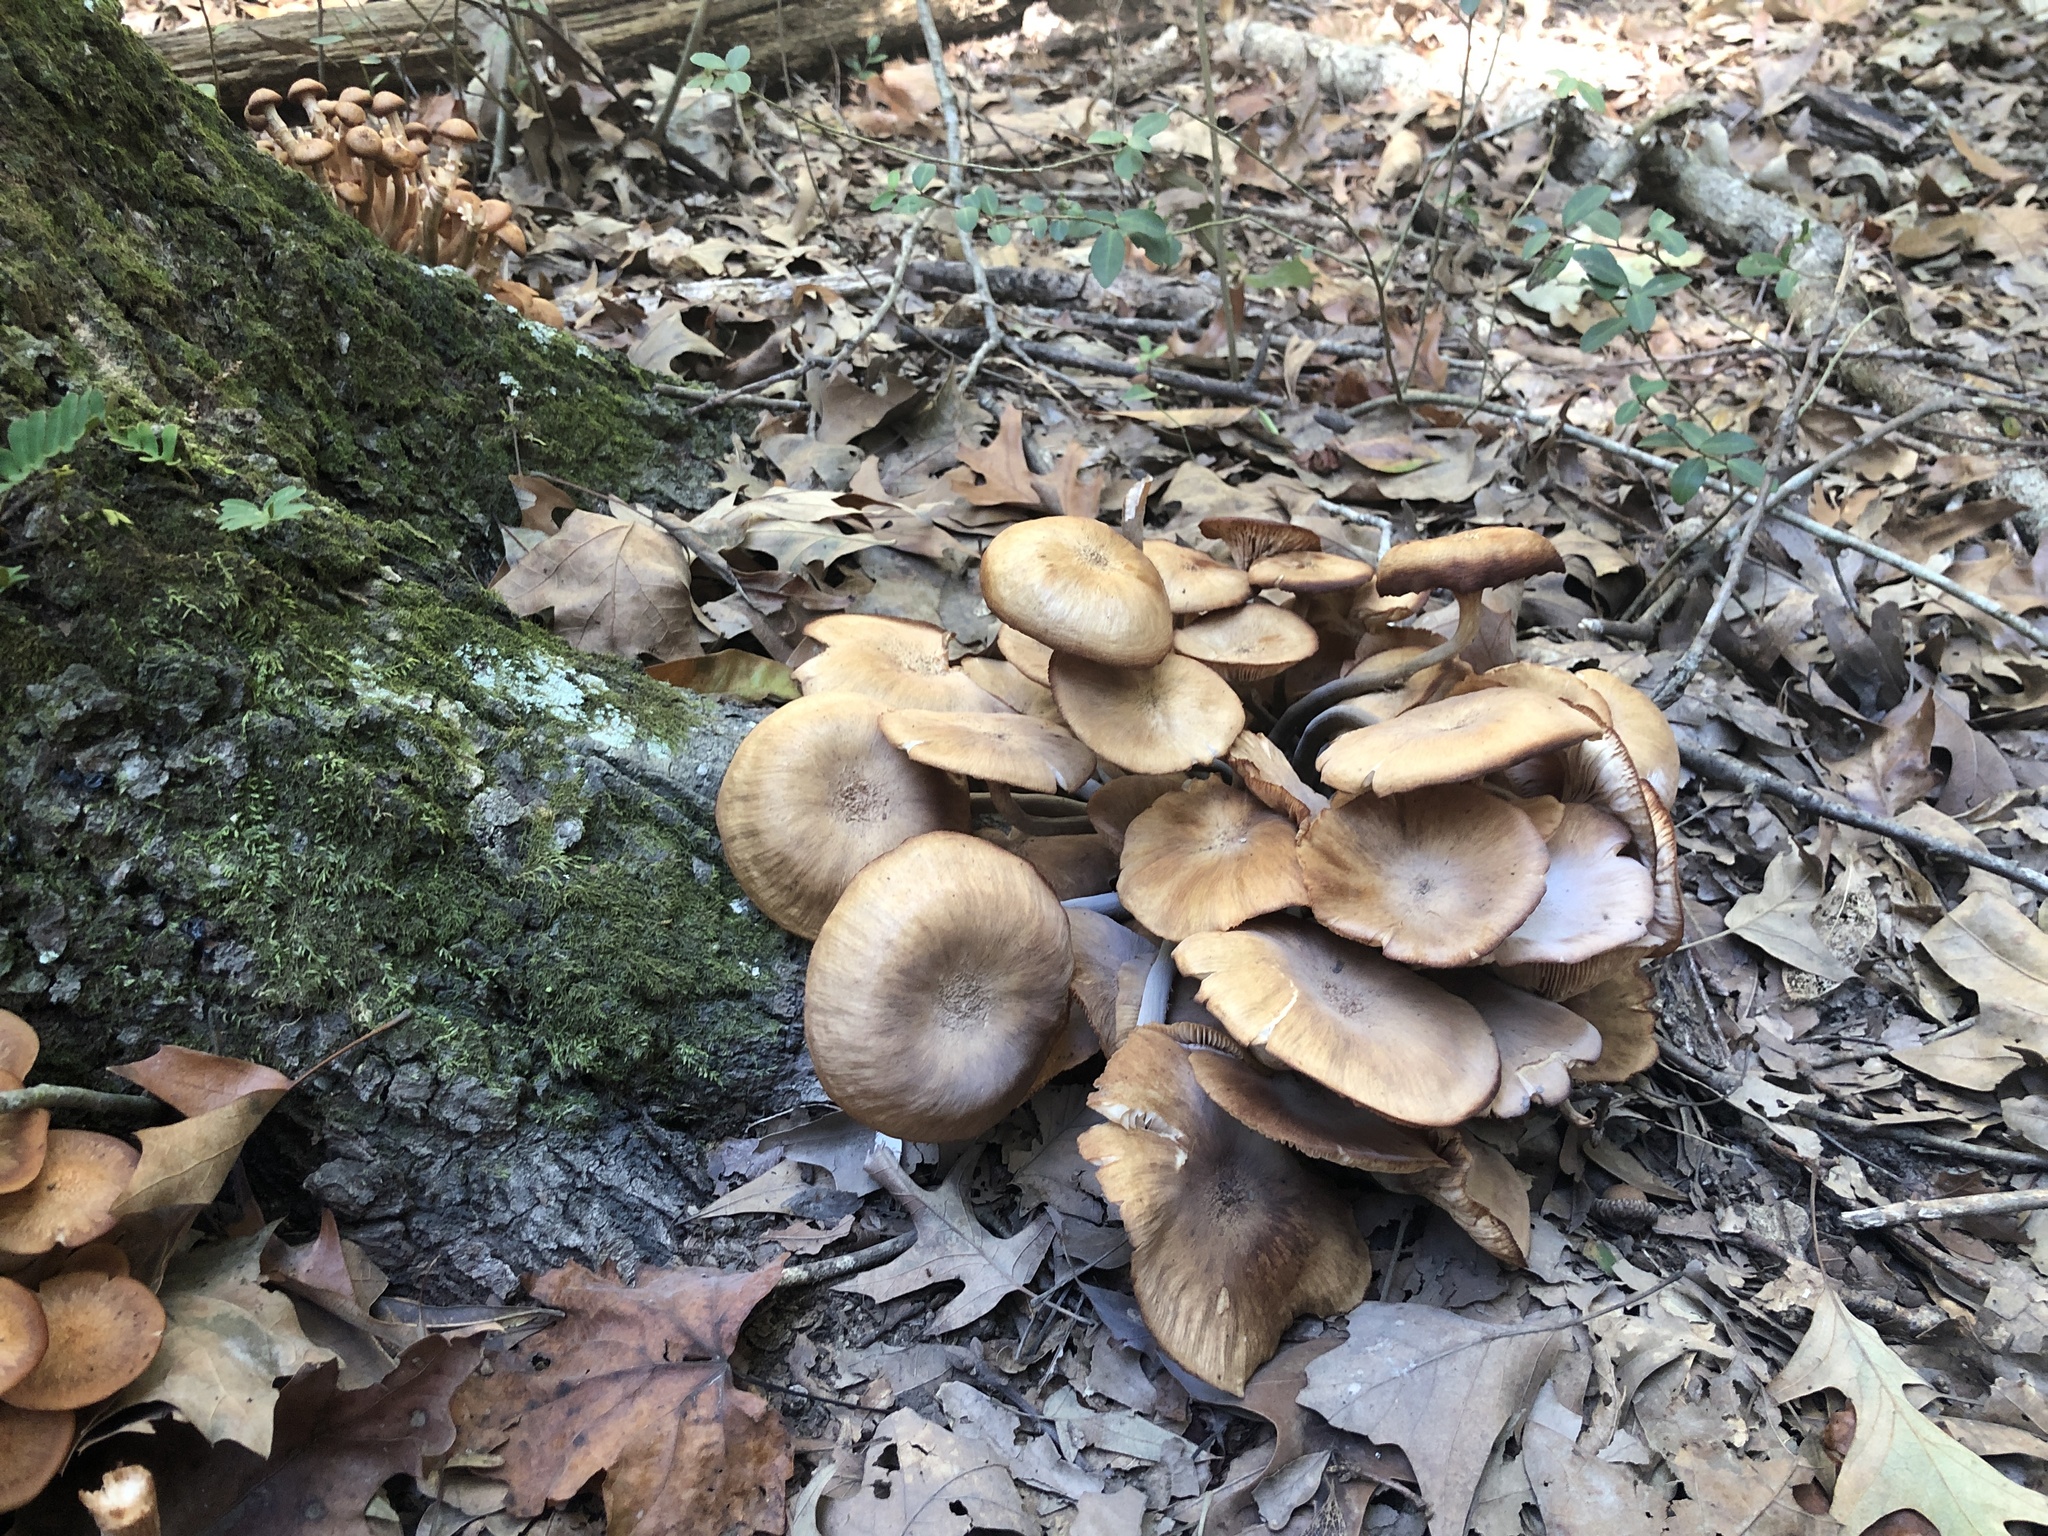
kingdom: Fungi
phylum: Basidiomycota
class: Agaricomycetes
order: Agaricales
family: Physalacriaceae
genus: Desarmillaria
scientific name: Desarmillaria caespitosa
